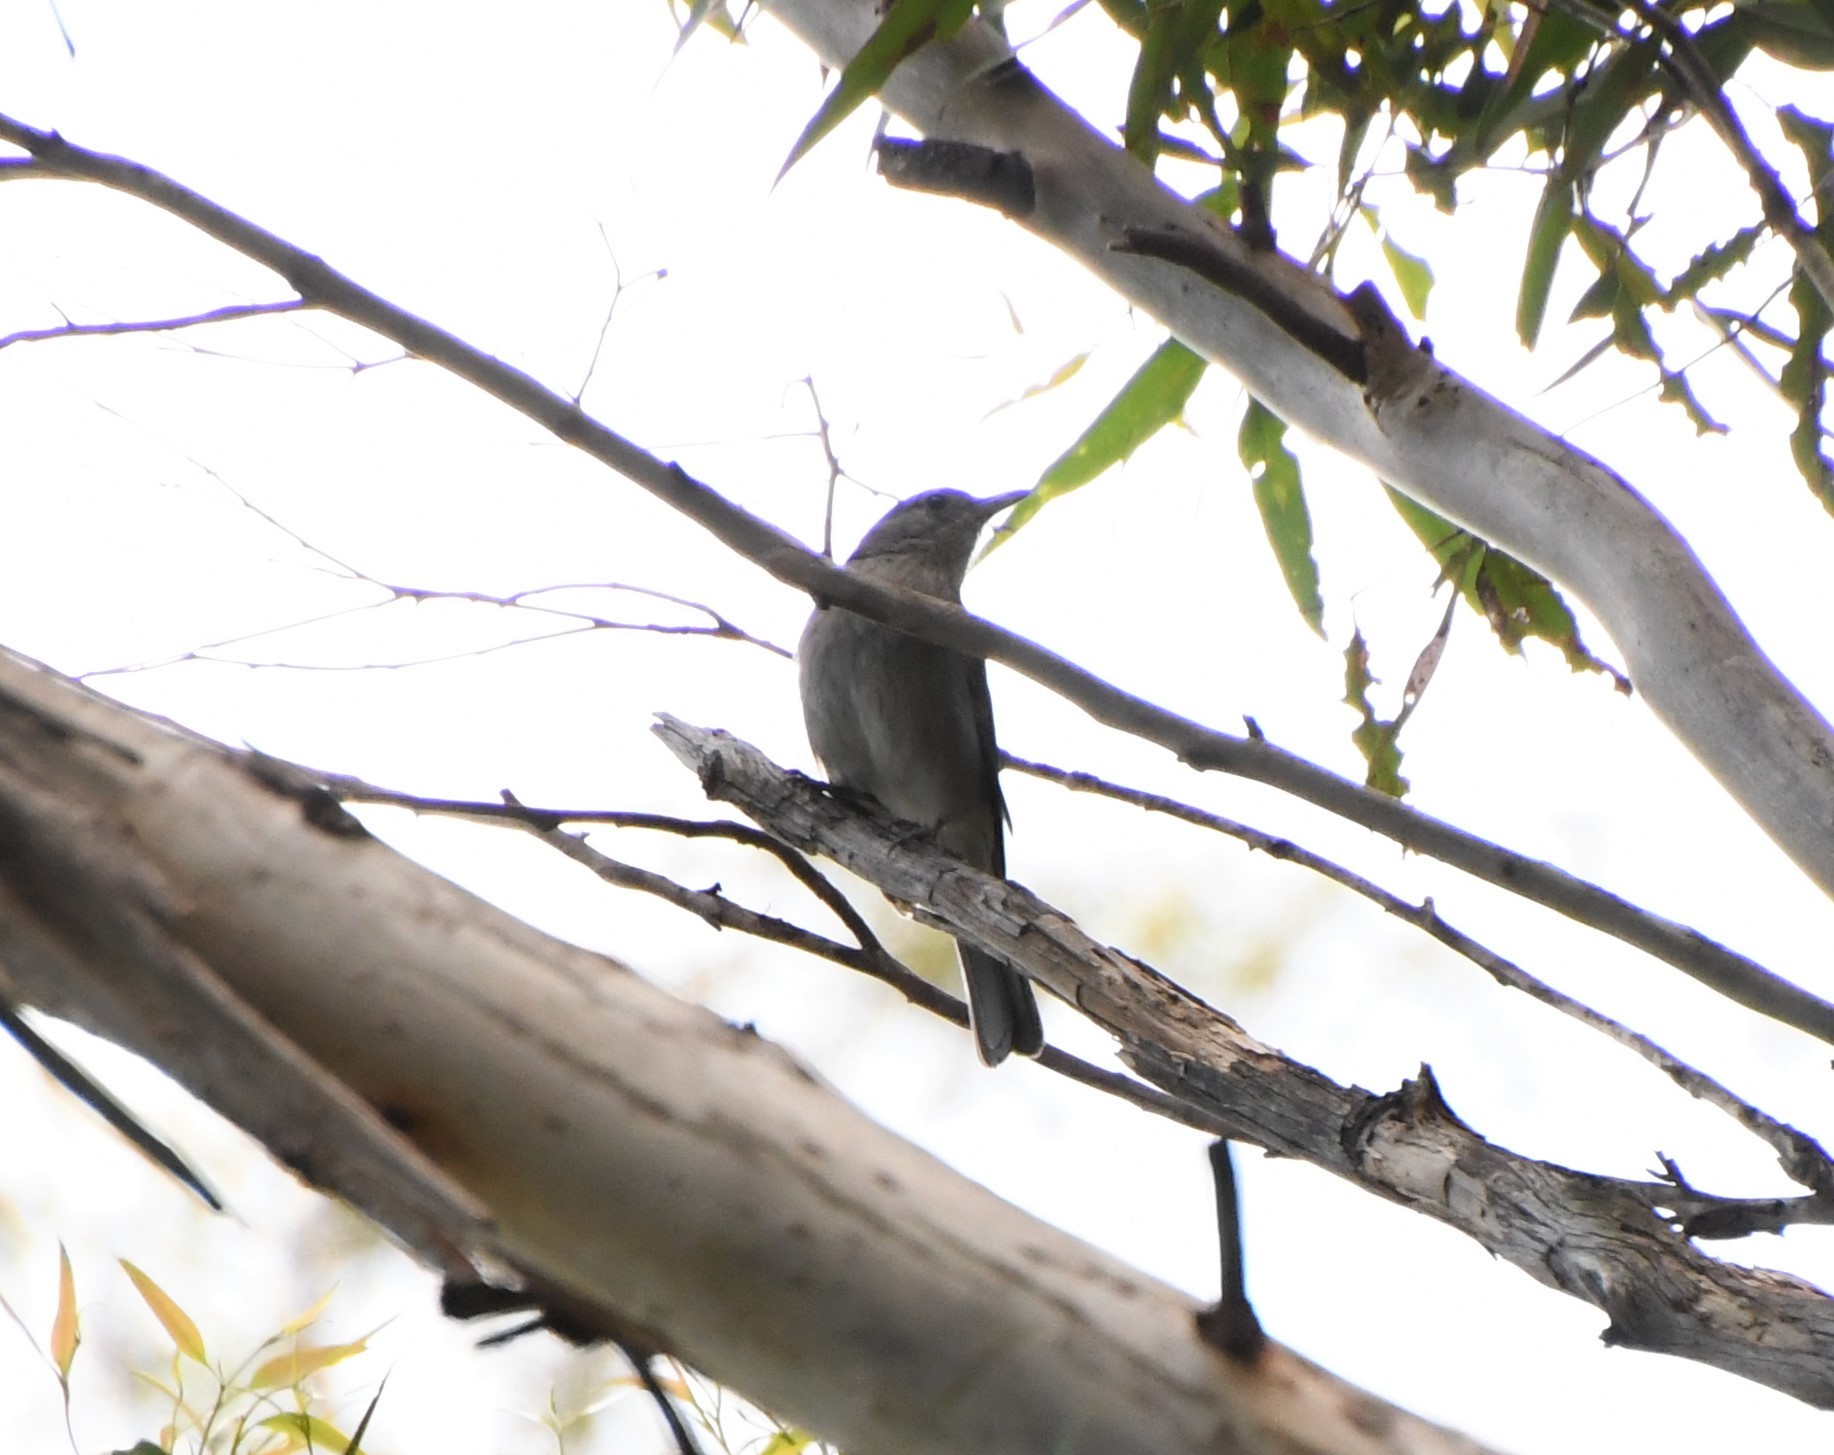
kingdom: Animalia
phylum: Chordata
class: Aves
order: Passeriformes
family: Pachycephalidae
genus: Colluricincla
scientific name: Colluricincla harmonica
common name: Grey shrikethrush
